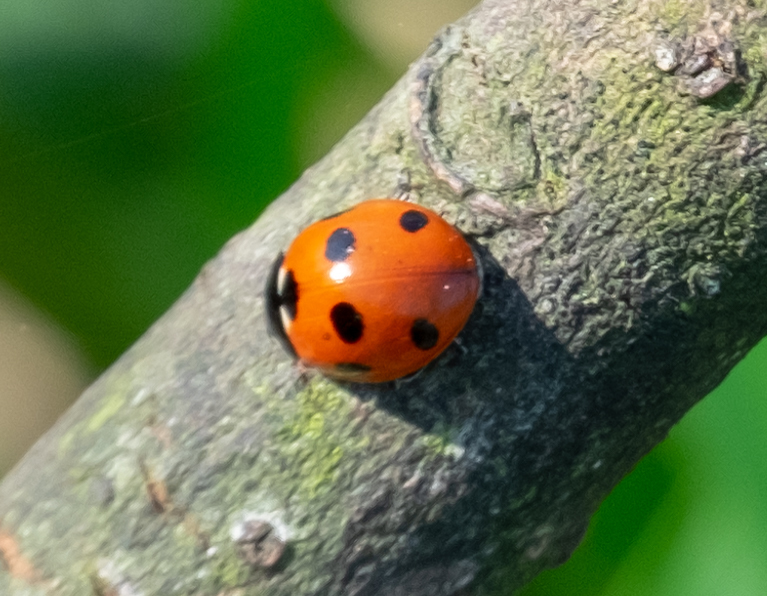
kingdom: Animalia
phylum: Arthropoda
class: Insecta
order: Coleoptera
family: Coccinellidae
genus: Coccinella
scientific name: Coccinella septempunctata
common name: Sevenspotted lady beetle
